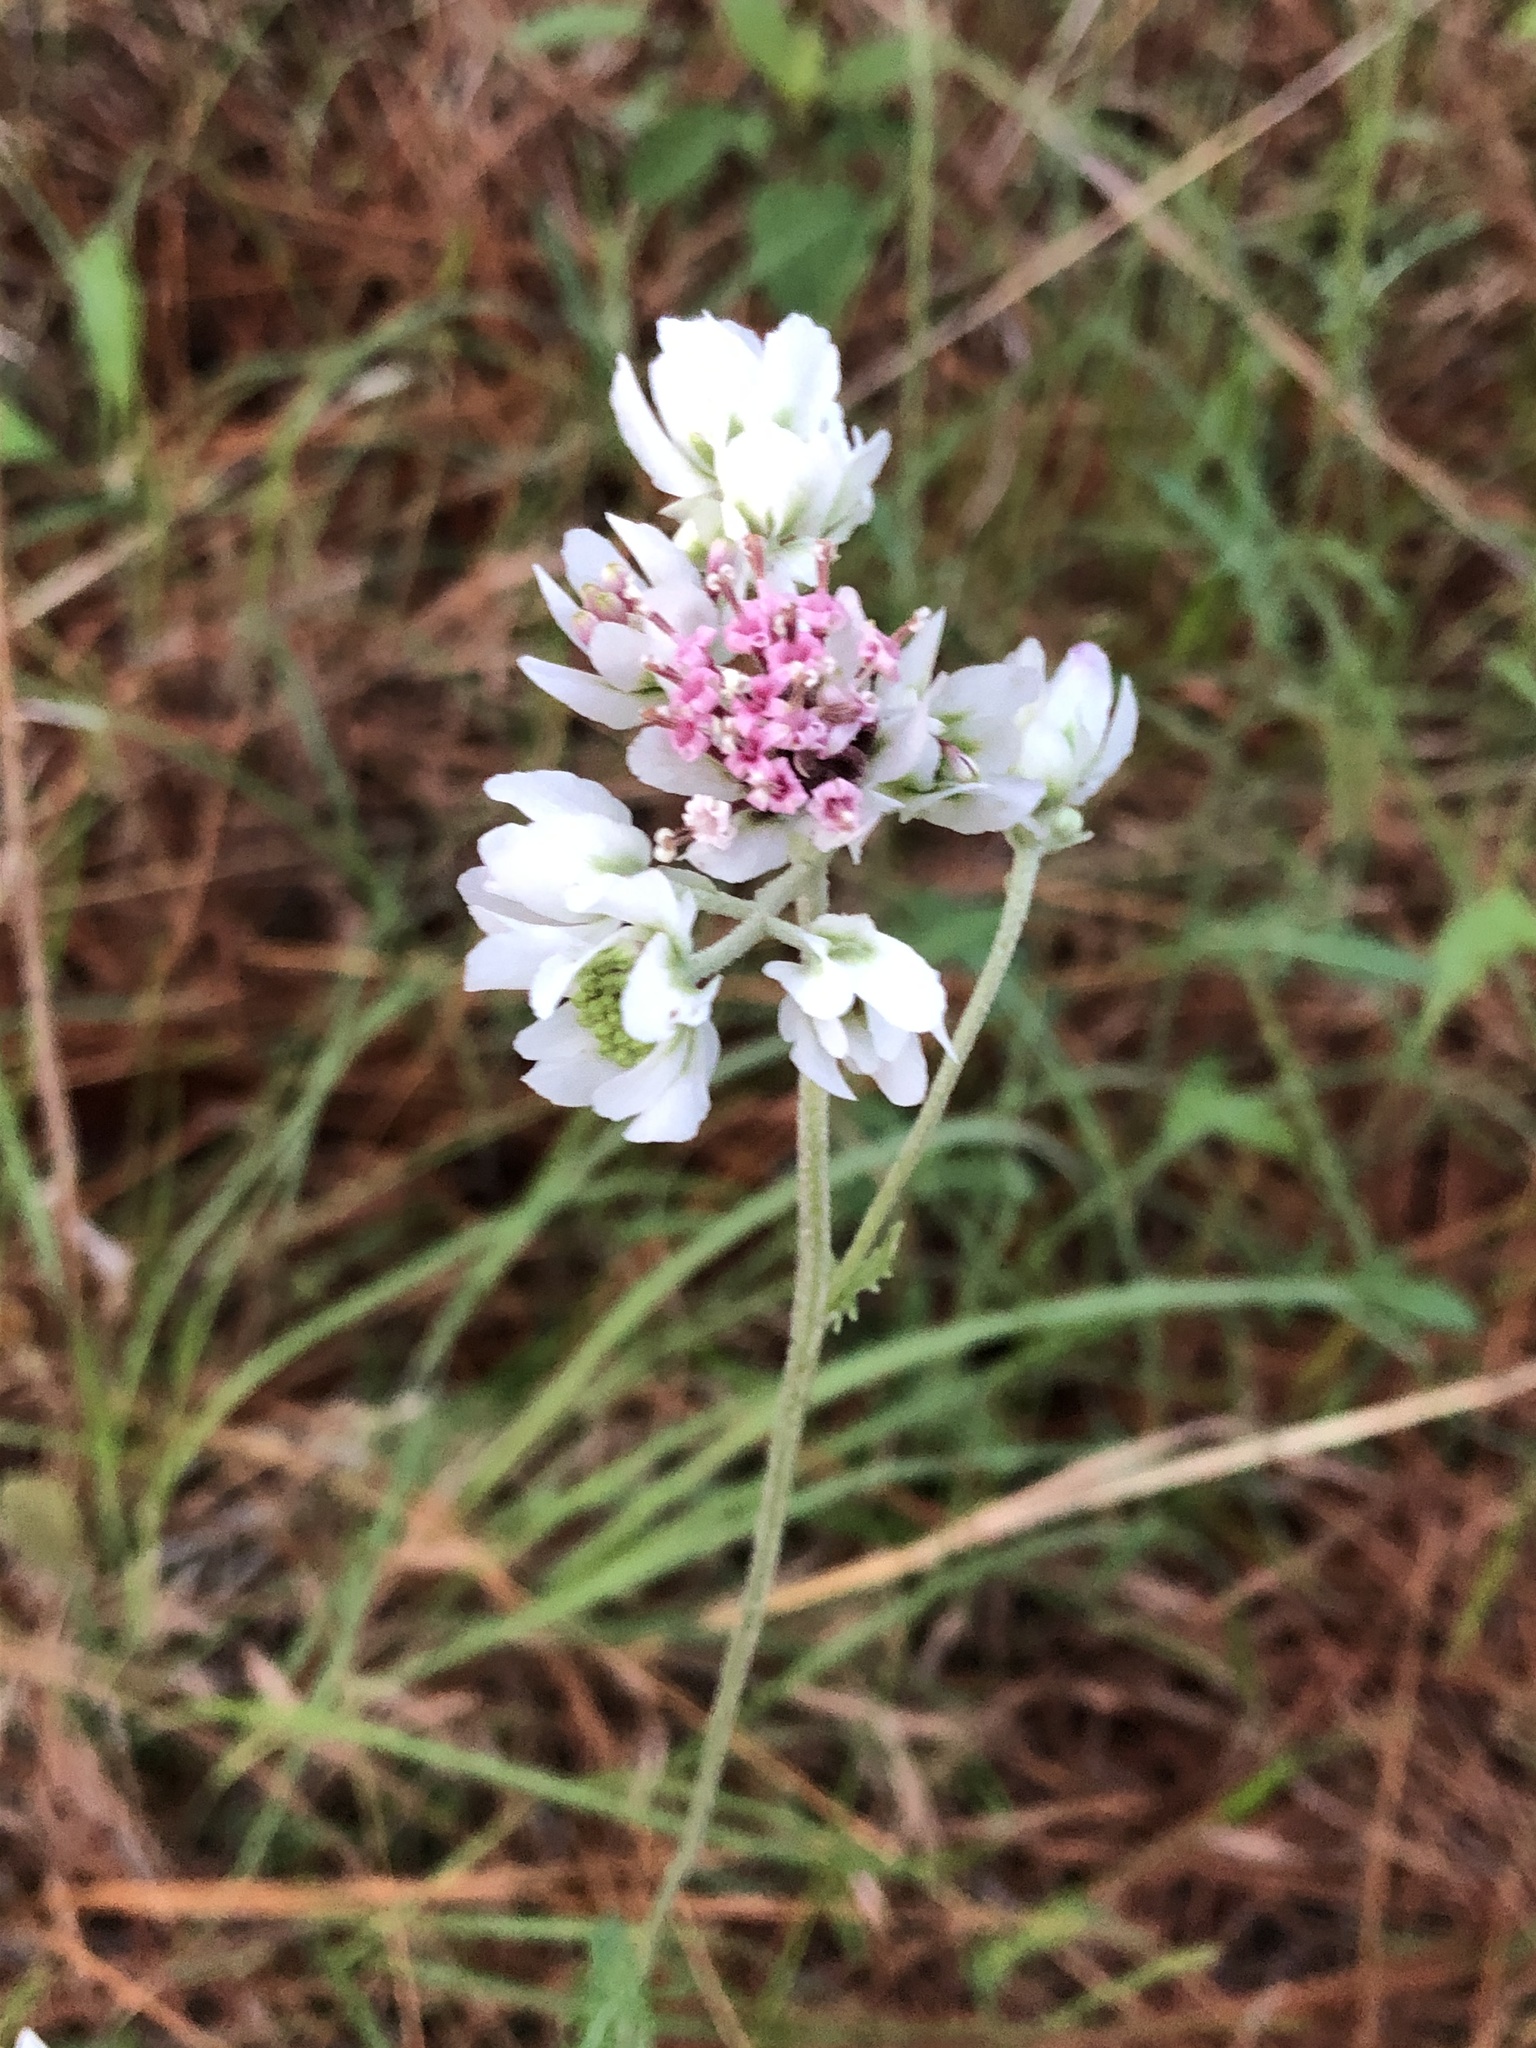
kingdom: Plantae
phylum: Tracheophyta
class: Magnoliopsida
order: Asterales
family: Asteraceae
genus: Hymenopappus
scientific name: Hymenopappus artemisiifolius
